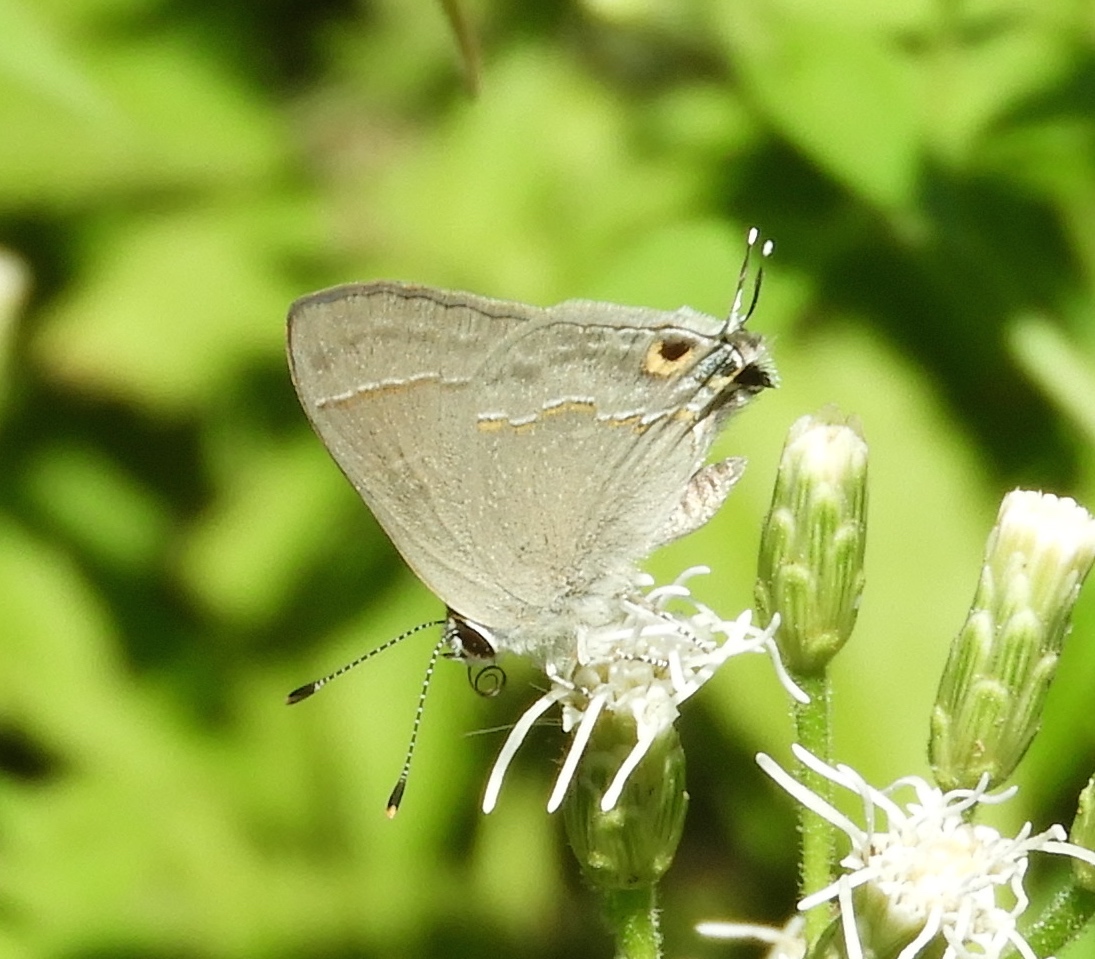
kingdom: Animalia
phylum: Arthropoda
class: Insecta
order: Lepidoptera
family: Lycaenidae
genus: Thecla
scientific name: Thecla bebrycia
